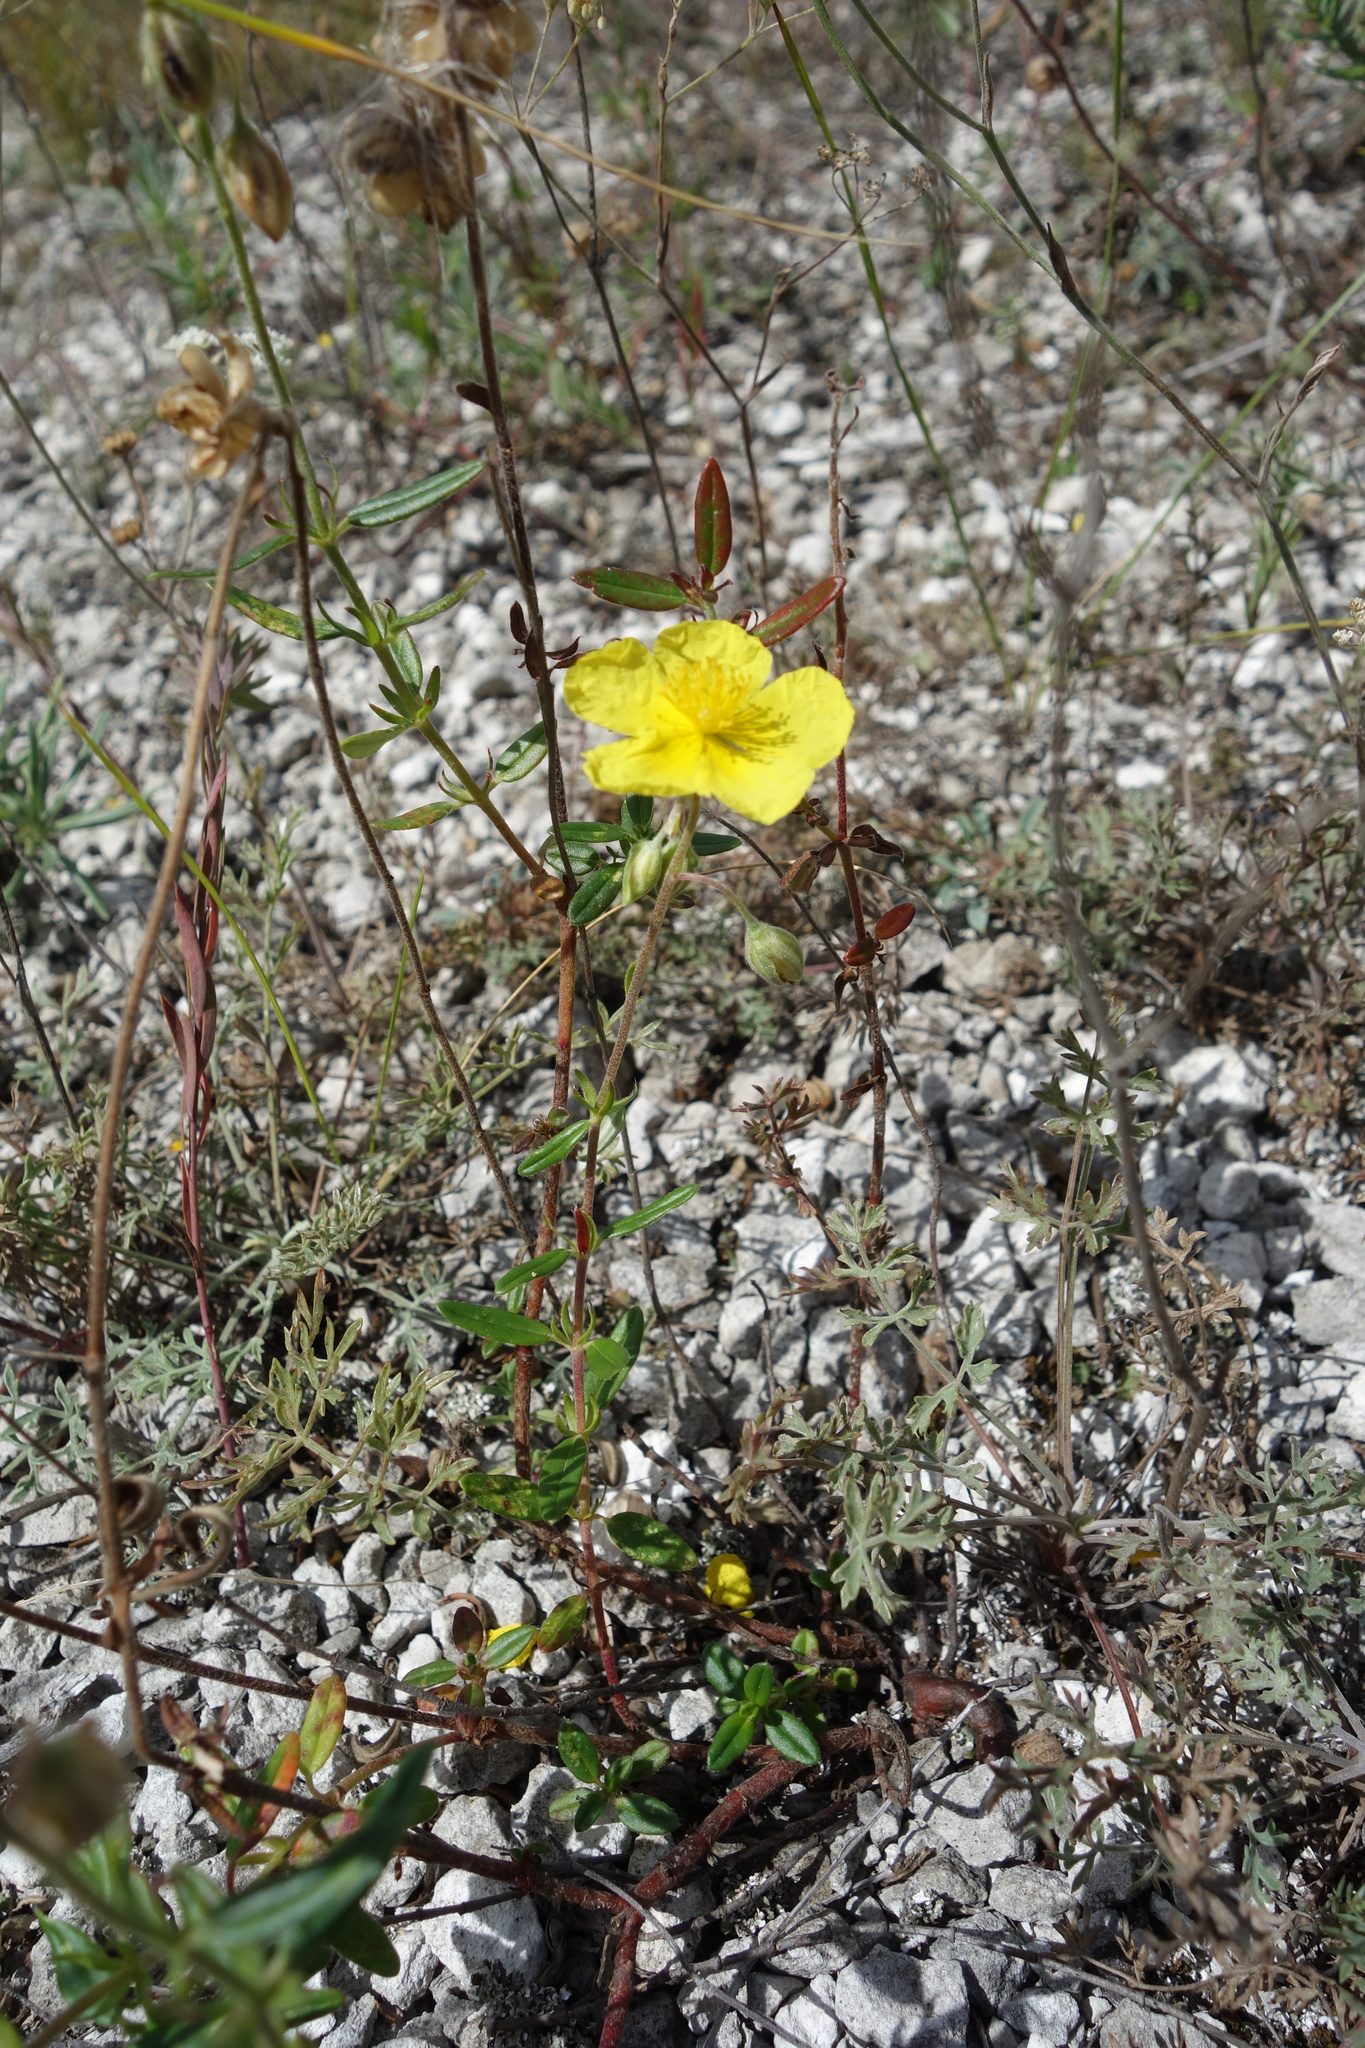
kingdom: Plantae
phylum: Tracheophyta
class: Magnoliopsida
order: Malvales
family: Cistaceae
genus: Helianthemum
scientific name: Helianthemum nummularium
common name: Common rock-rose
